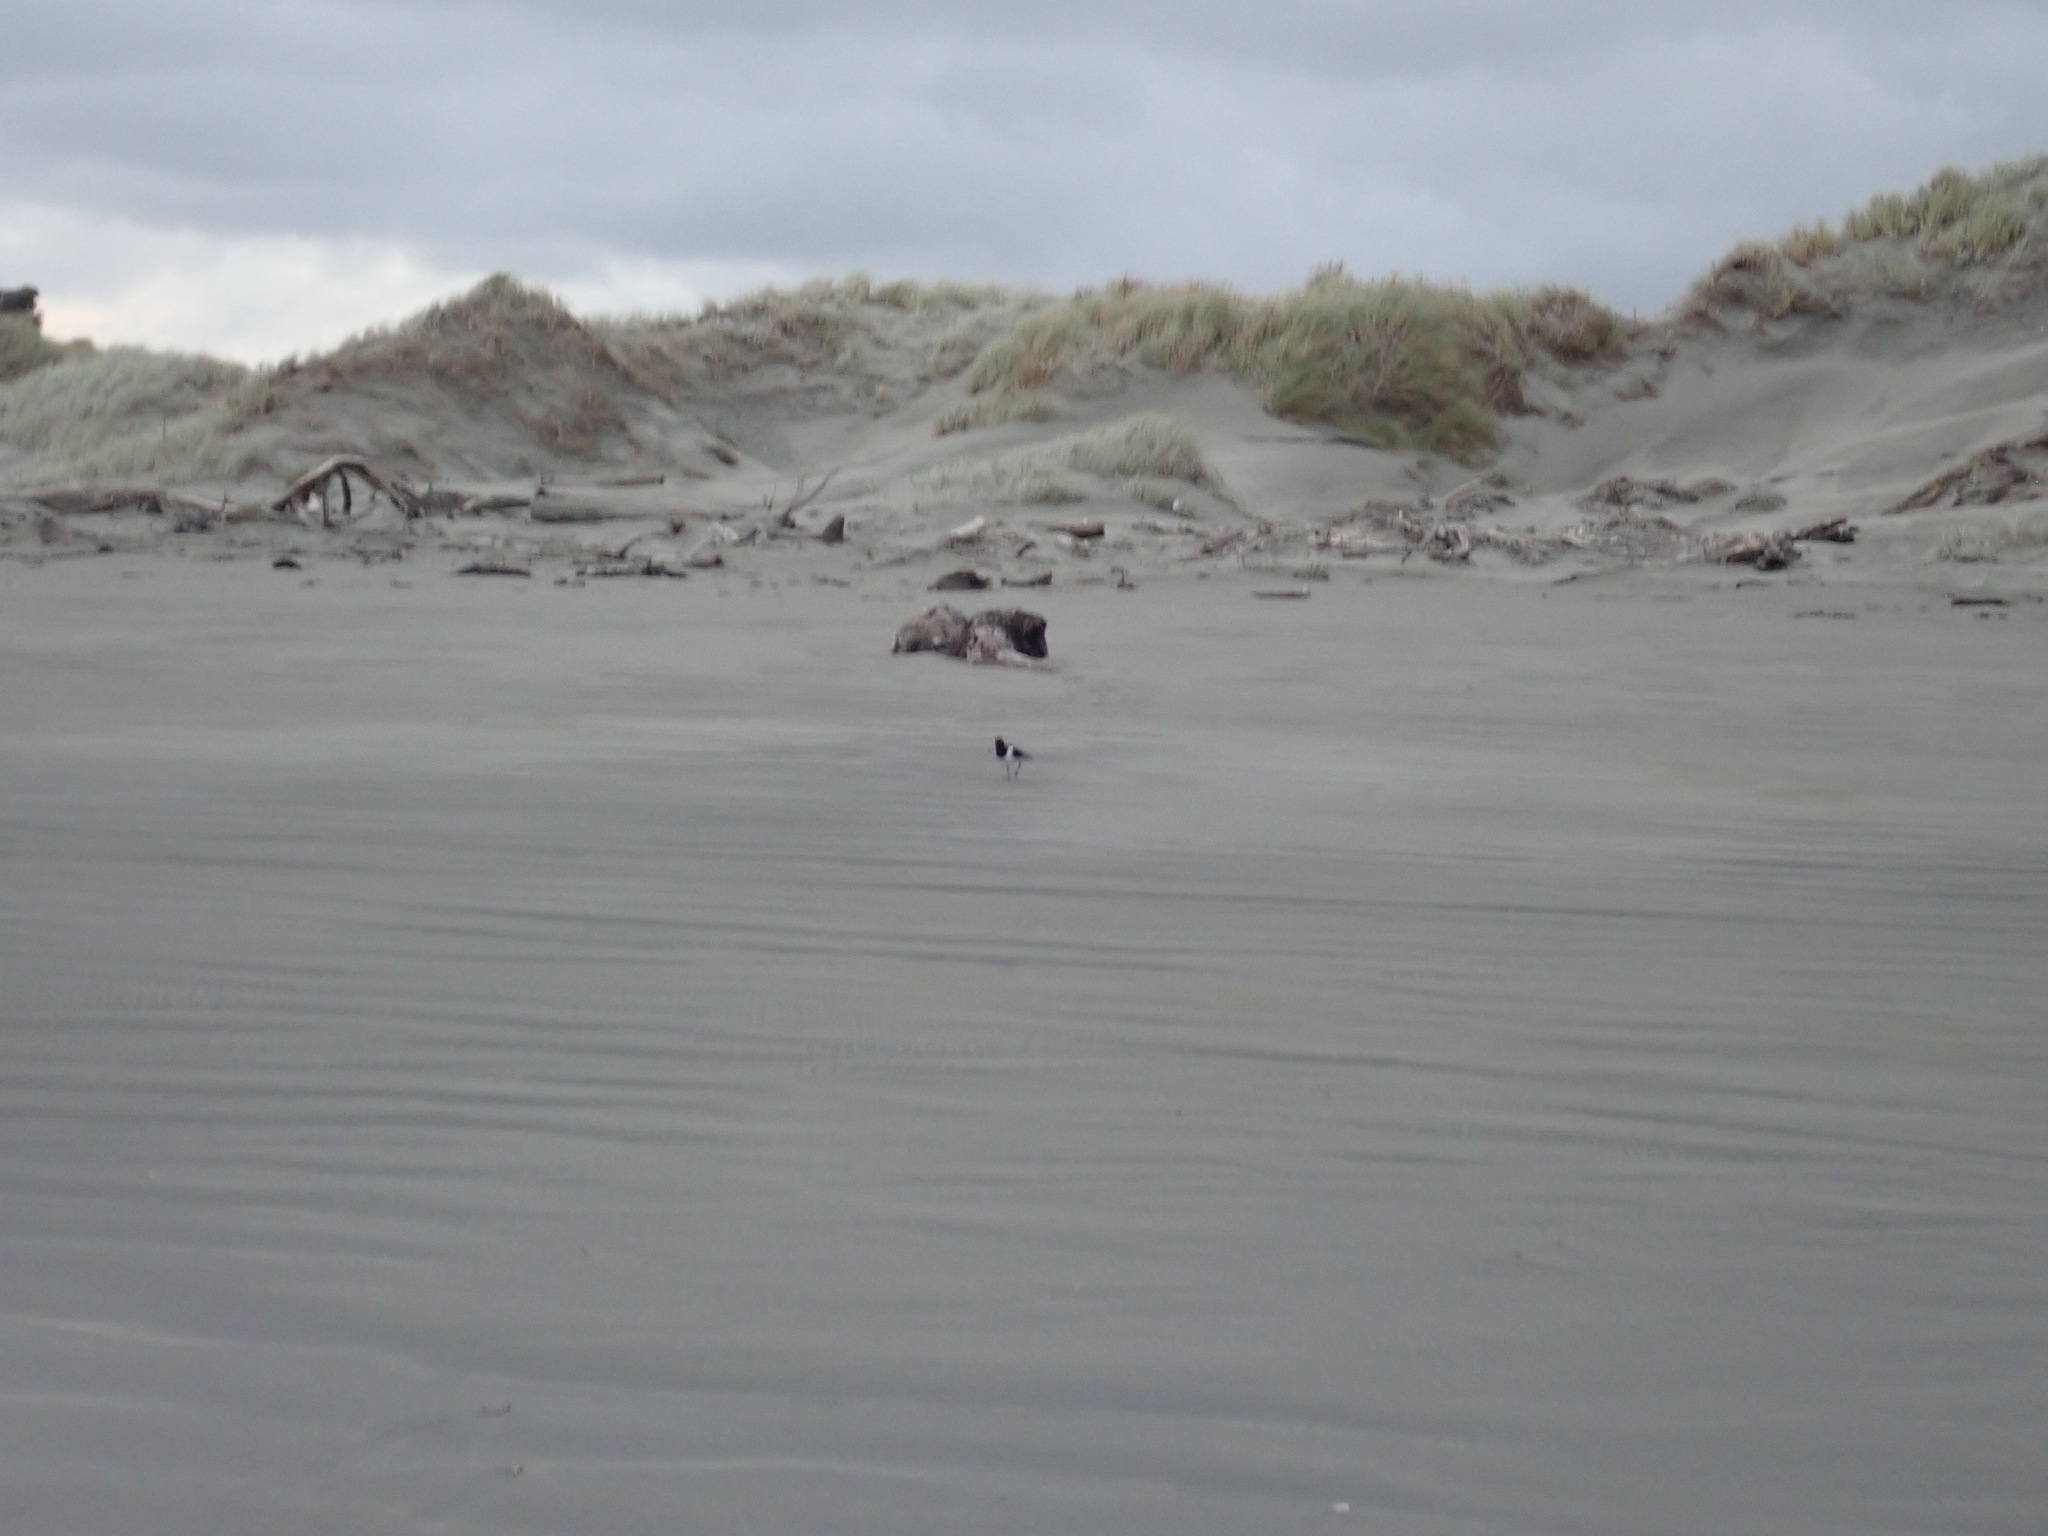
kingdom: Animalia
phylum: Chordata
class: Aves
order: Charadriiformes
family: Haematopodidae
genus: Haematopus
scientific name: Haematopus finschi
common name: South island oystercatcher
